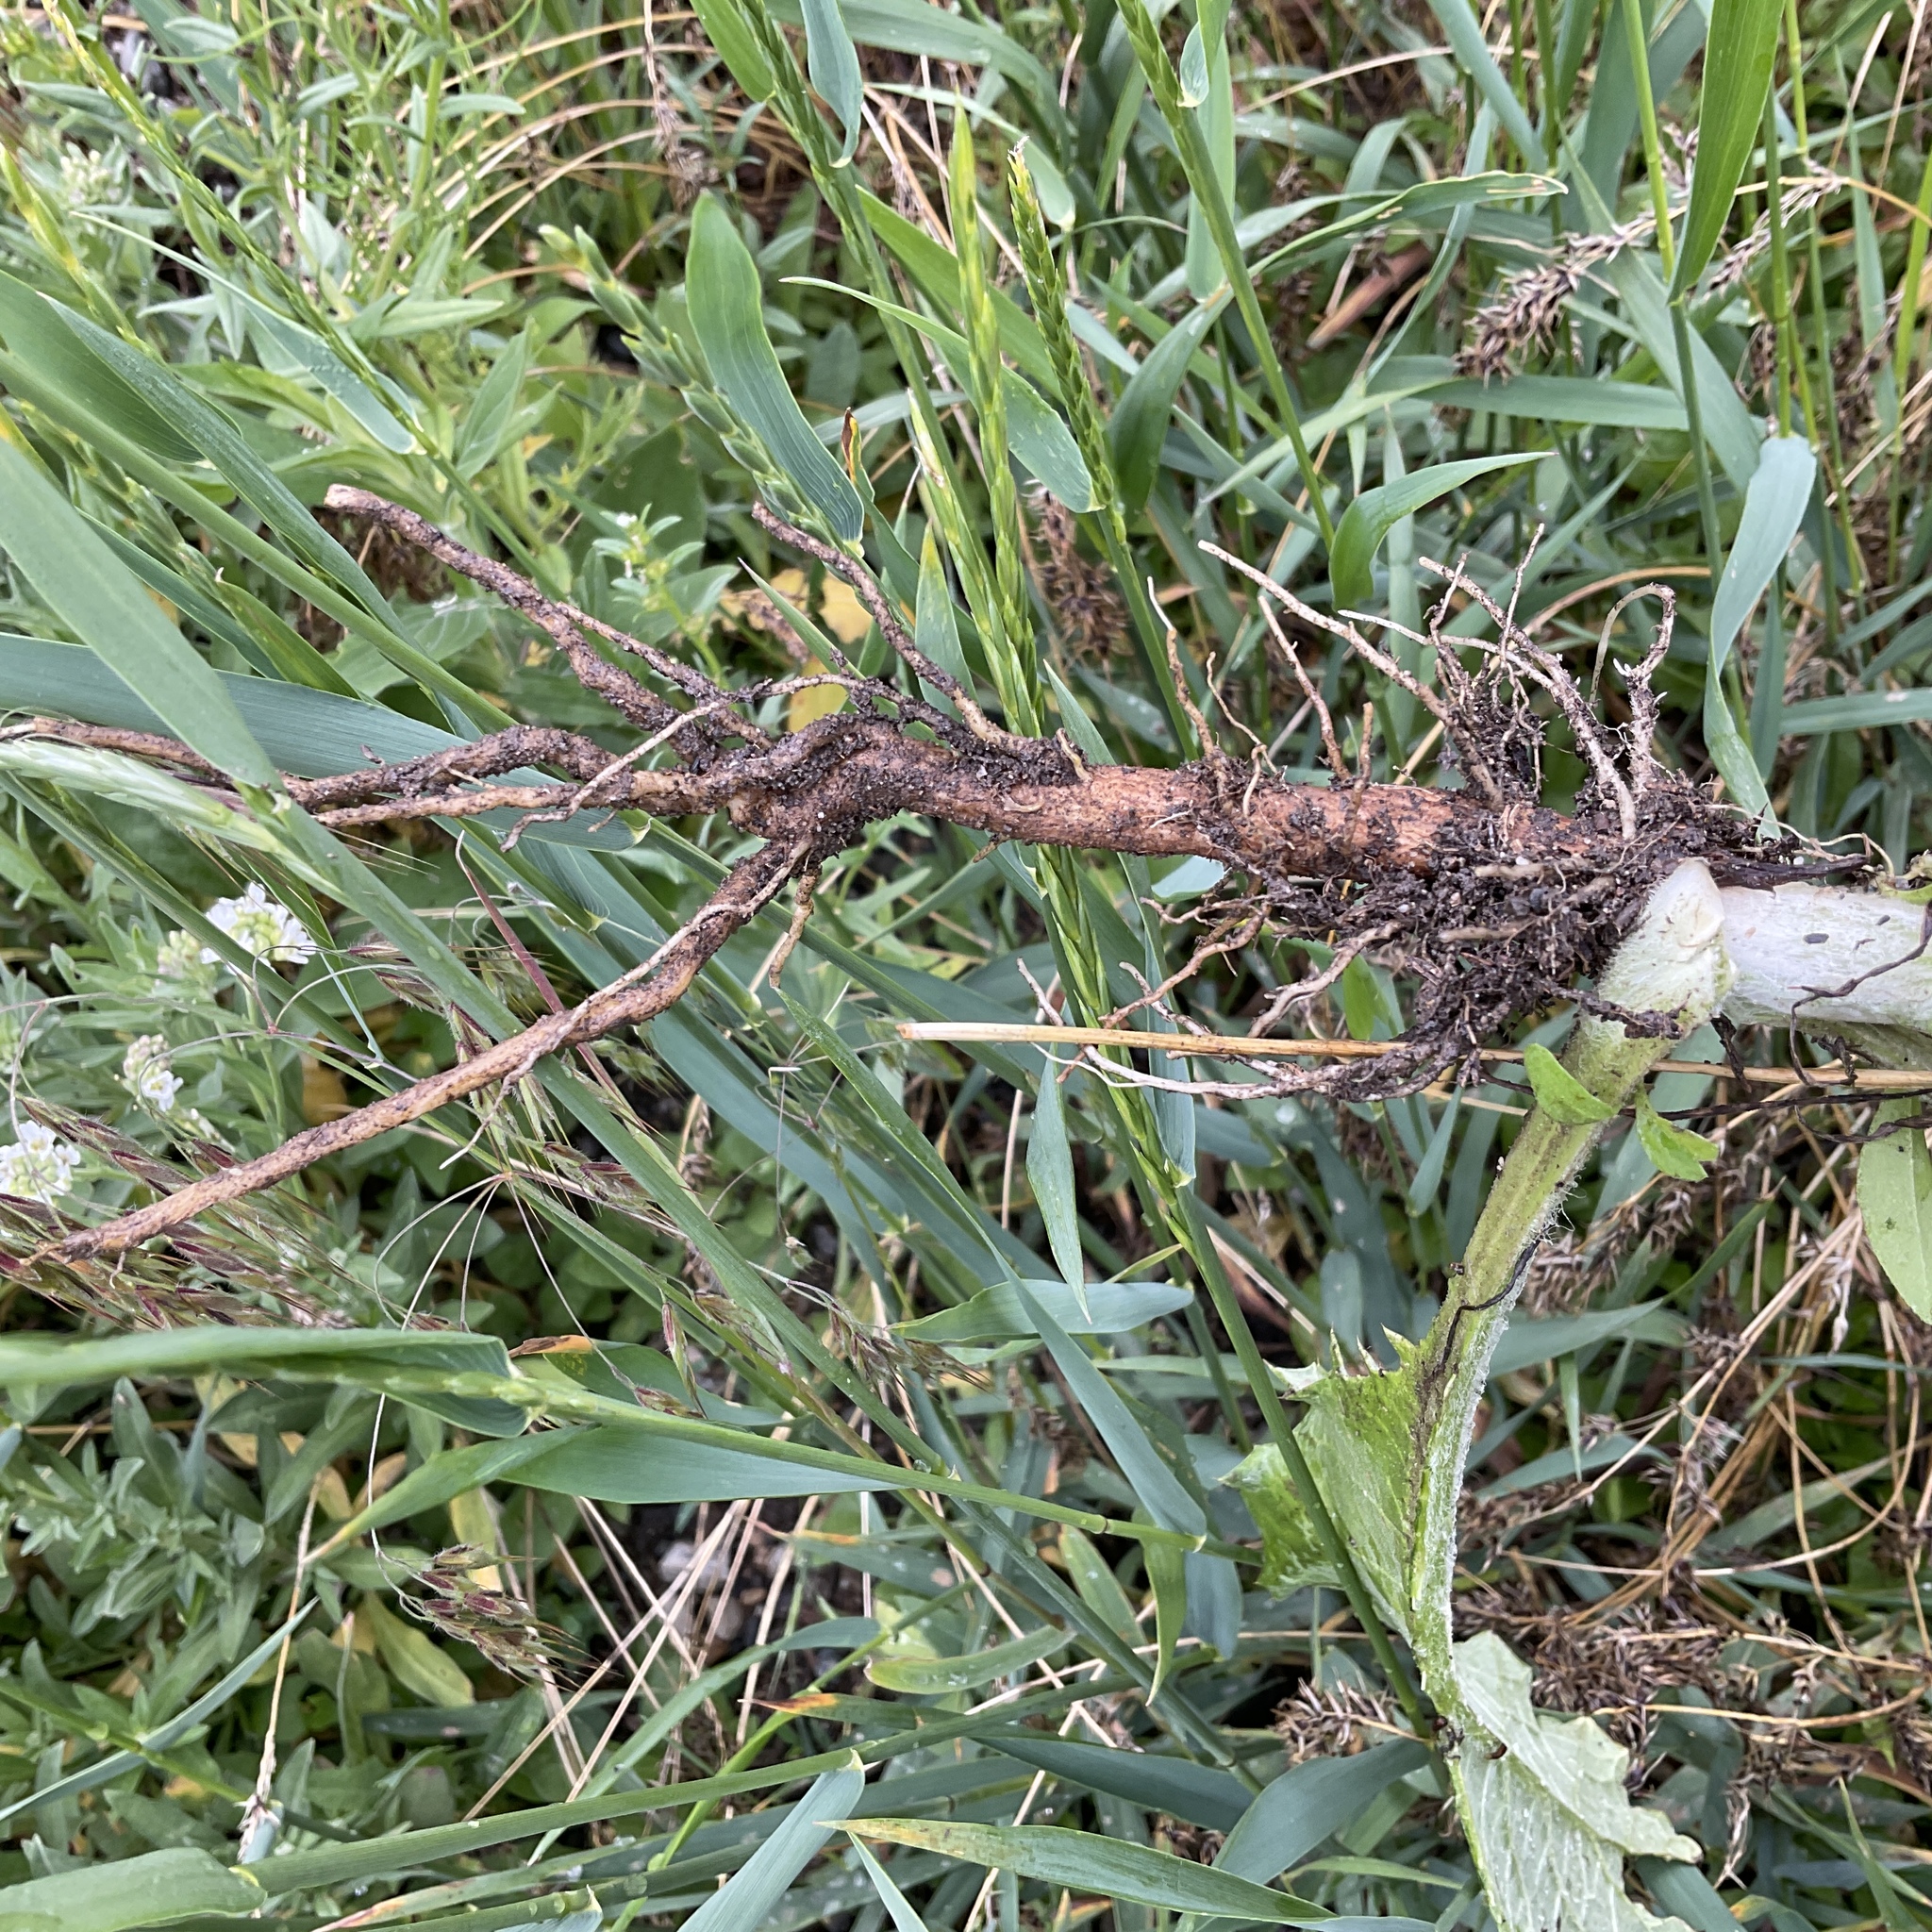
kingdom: Plantae
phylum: Tracheophyta
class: Magnoliopsida
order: Asterales
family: Asteraceae
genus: Onopordum
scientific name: Onopordum acanthium
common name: Scotch thistle
